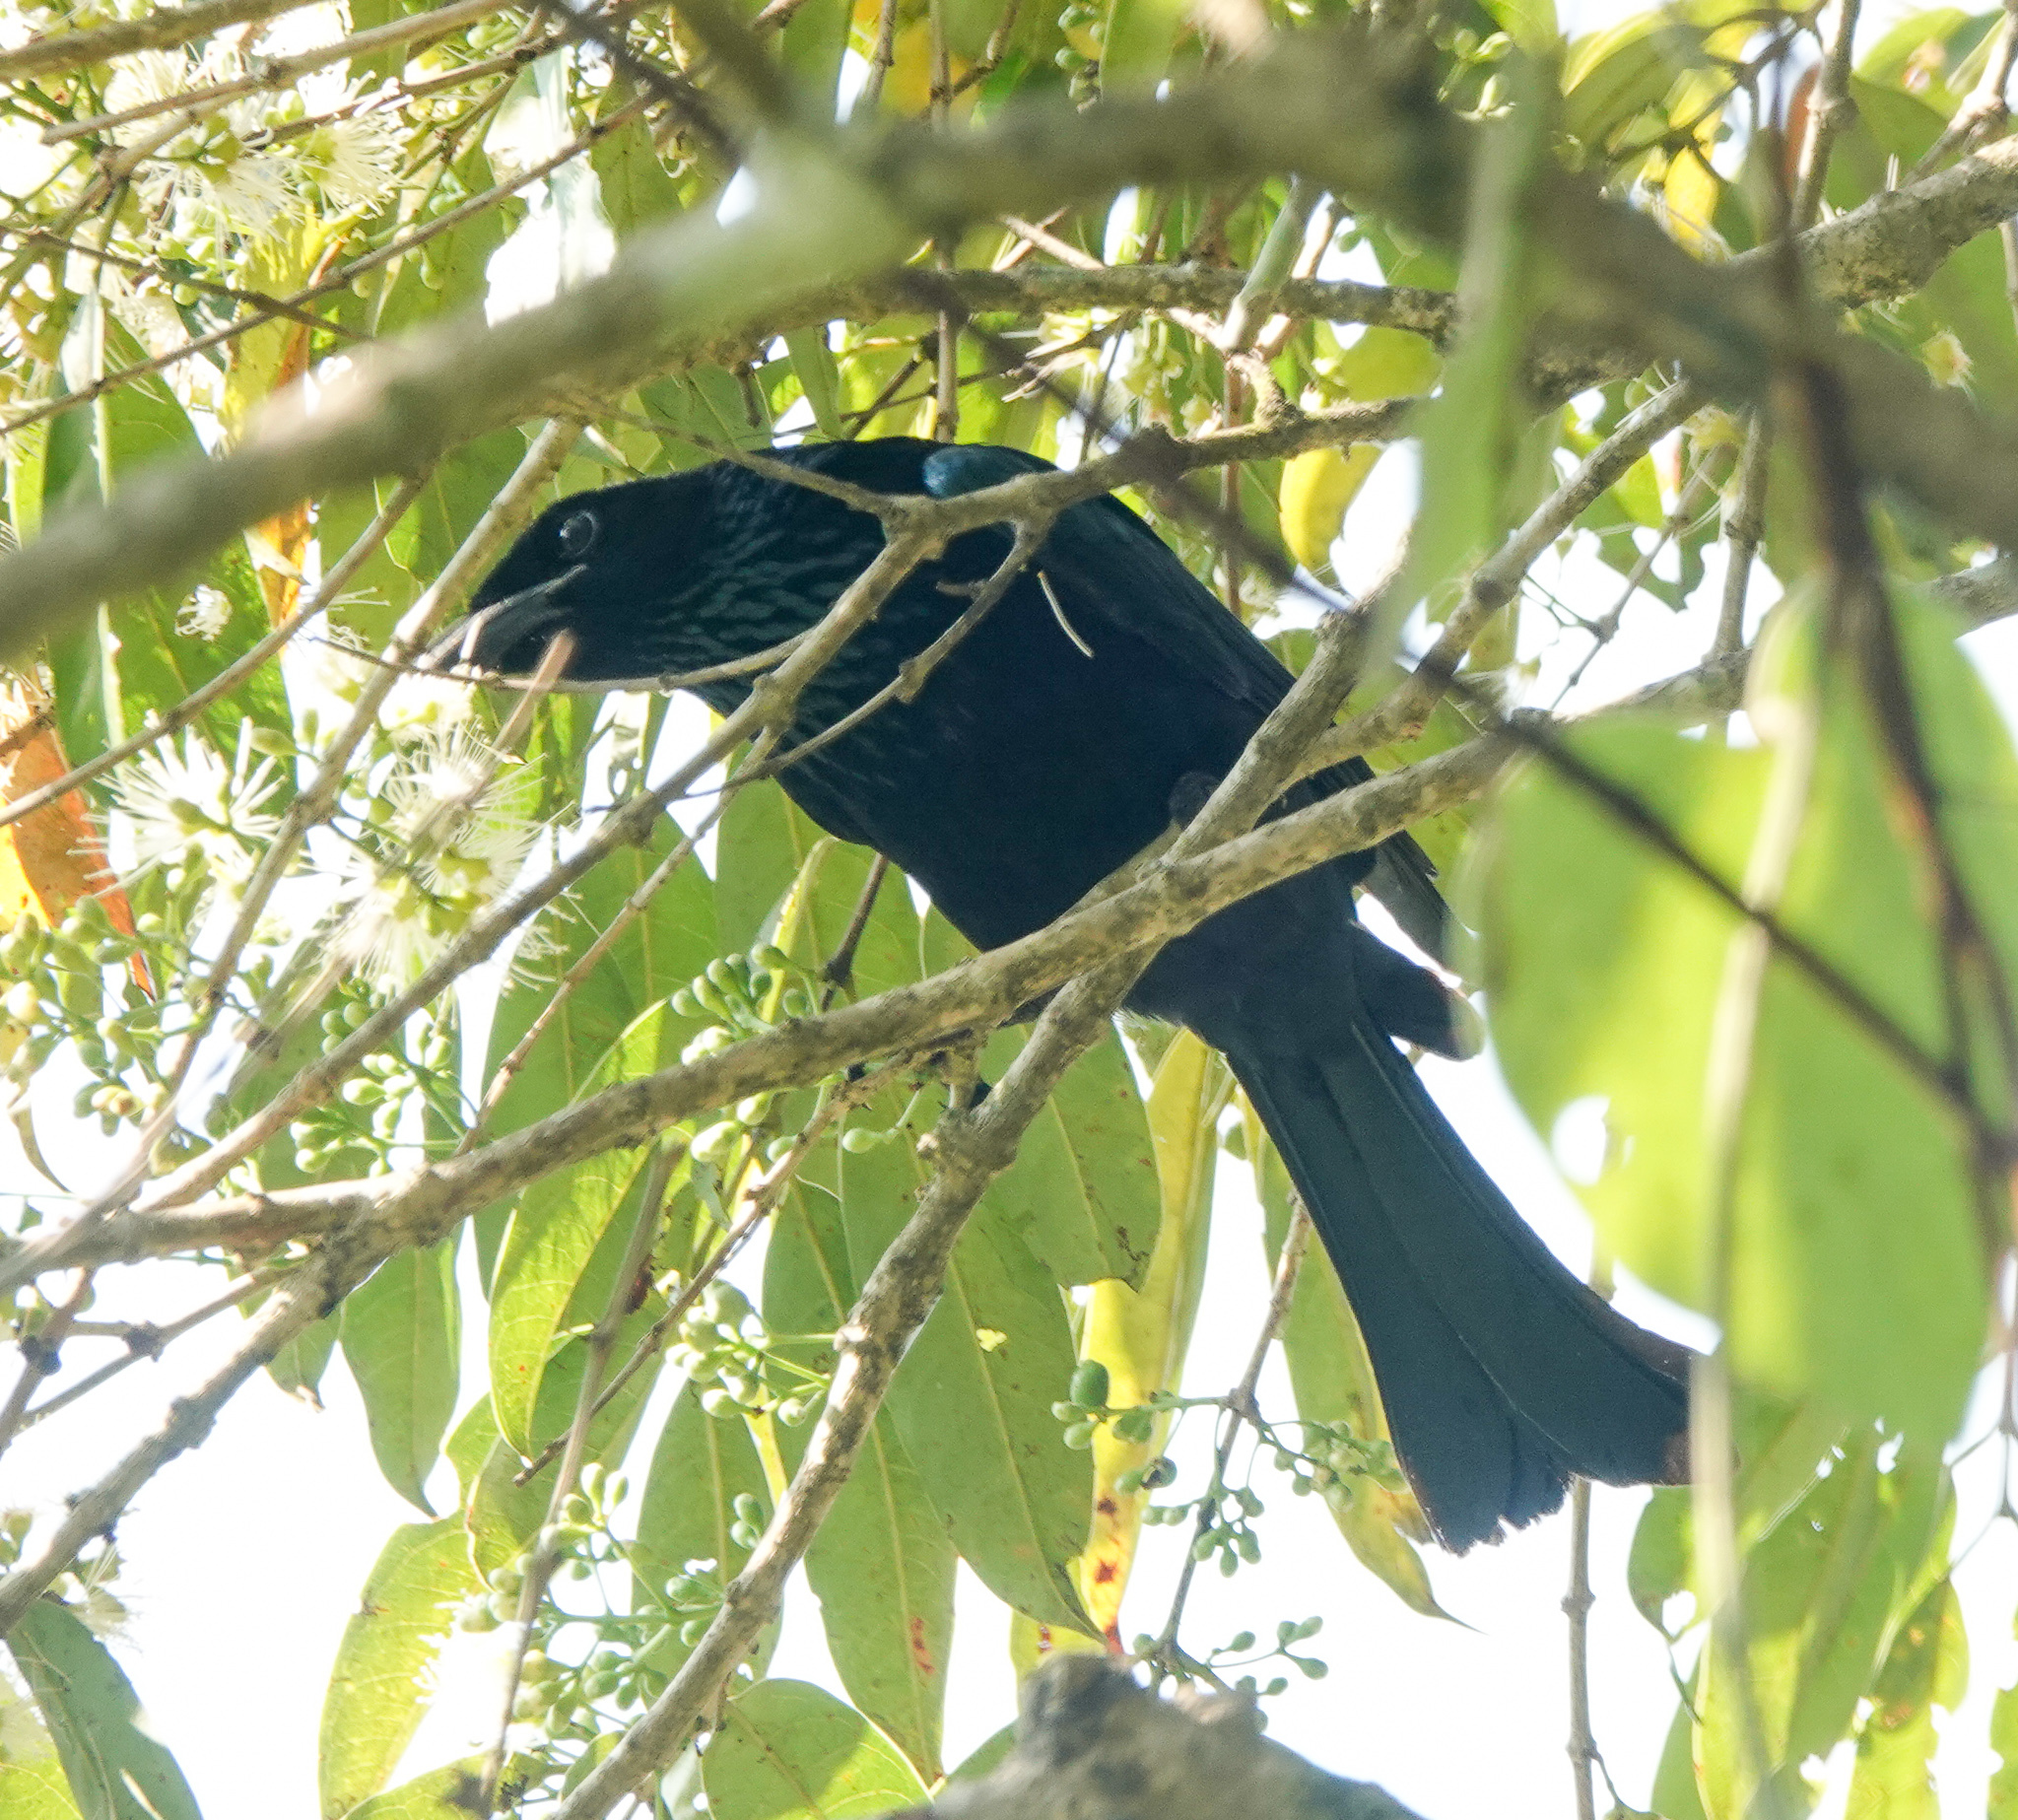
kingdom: Animalia
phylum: Chordata
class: Aves
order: Passeriformes
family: Dicruridae
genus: Dicrurus
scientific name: Dicrurus hottentottus
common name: Hair-crested drongo
